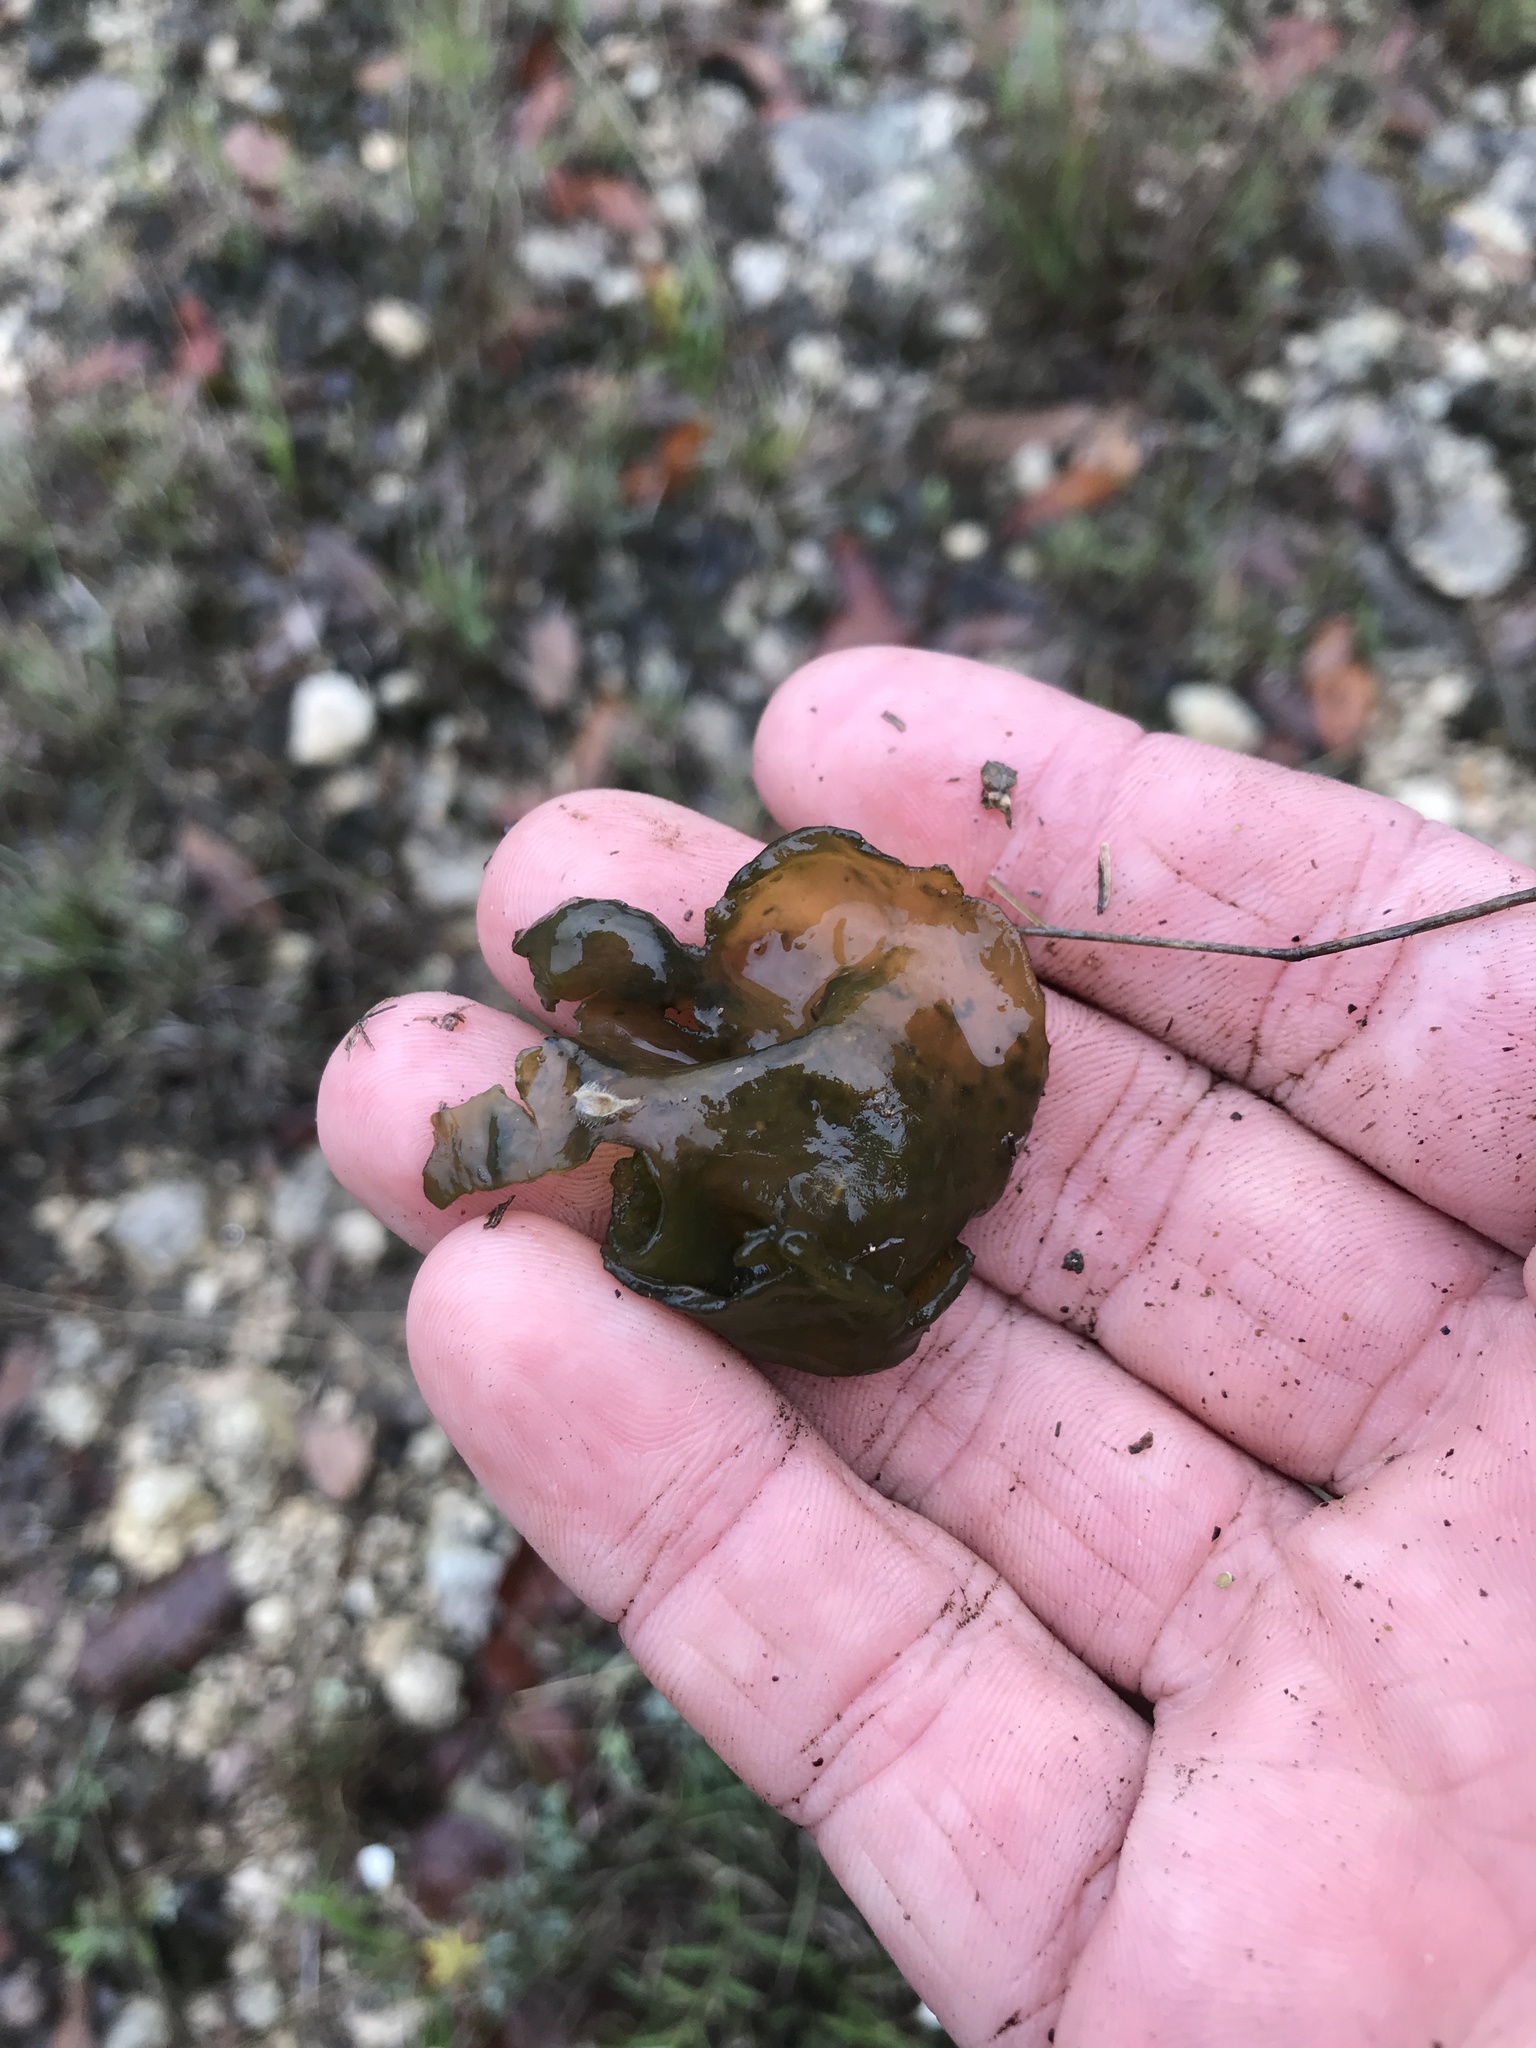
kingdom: Bacteria
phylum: Cyanobacteria
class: Cyanobacteriia
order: Cyanobacteriales
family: Nostocaceae
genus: Nostoc
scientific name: Nostoc commune
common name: Star jelly
